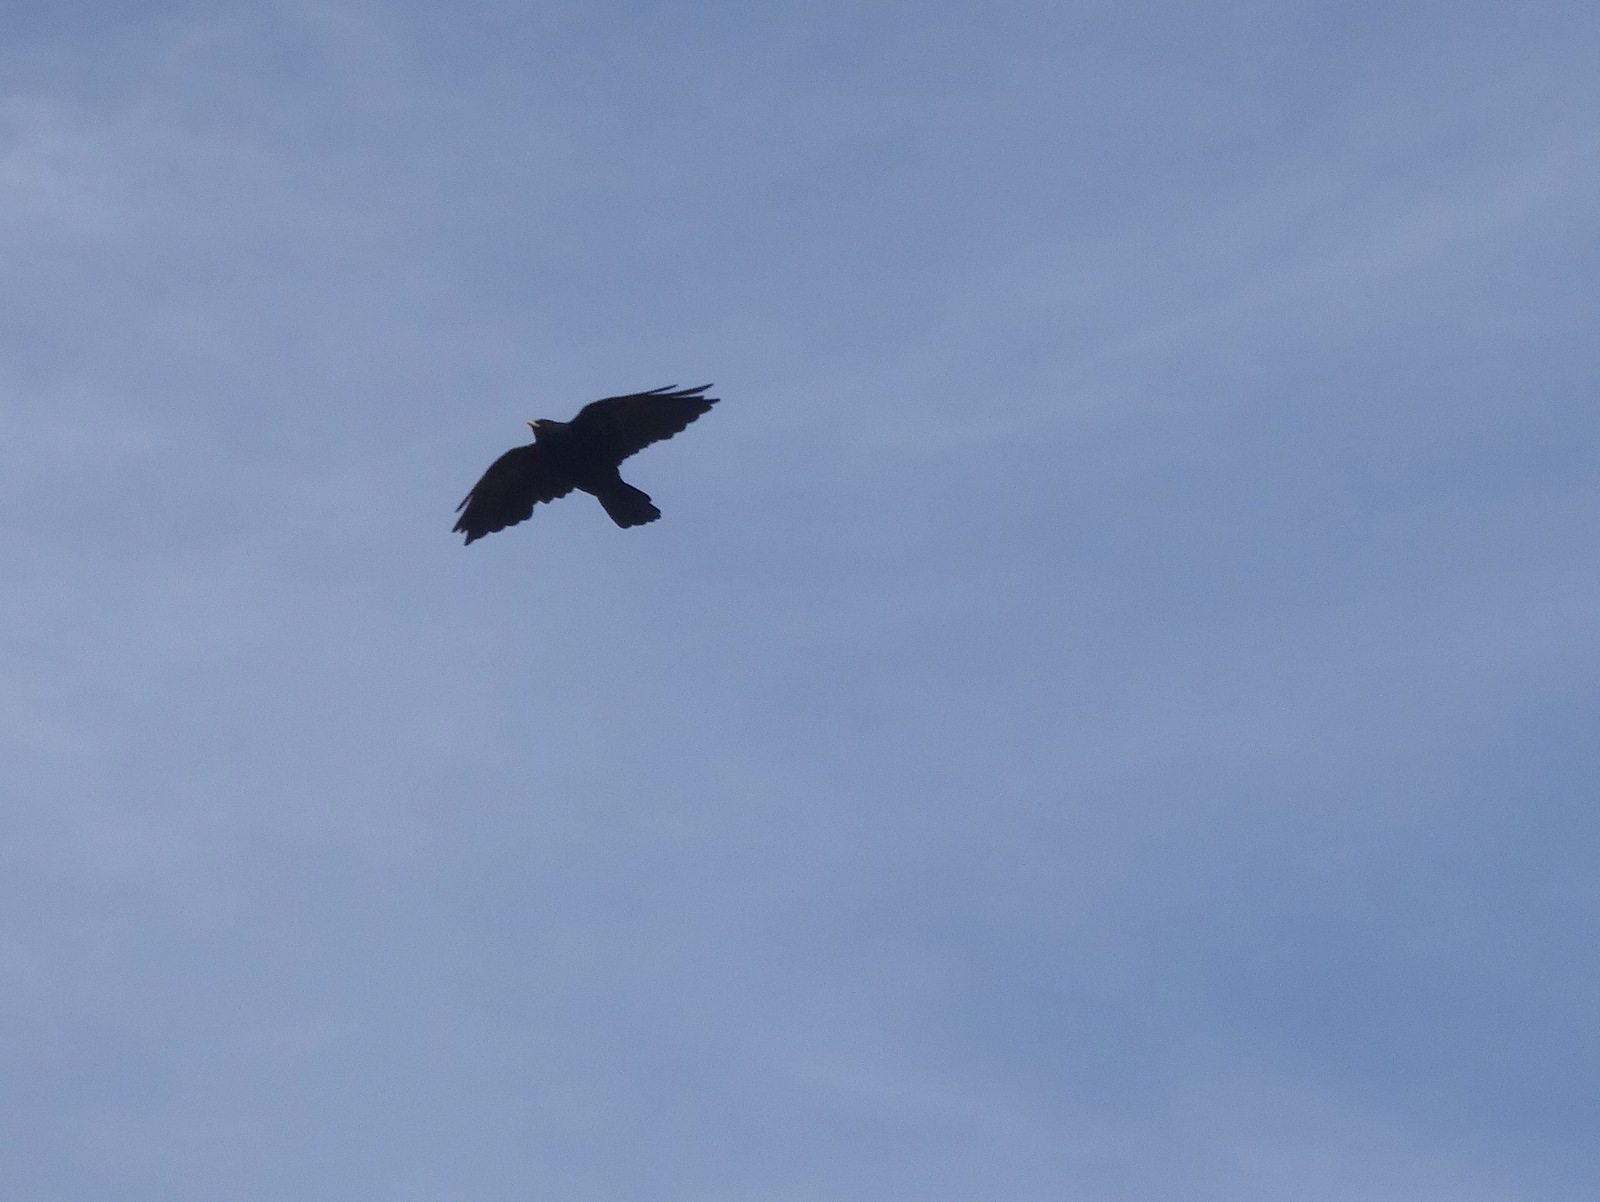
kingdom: Animalia
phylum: Chordata
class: Aves
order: Passeriformes
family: Corvidae
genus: Pyrrhocorax
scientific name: Pyrrhocorax graculus
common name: Alpine chough
